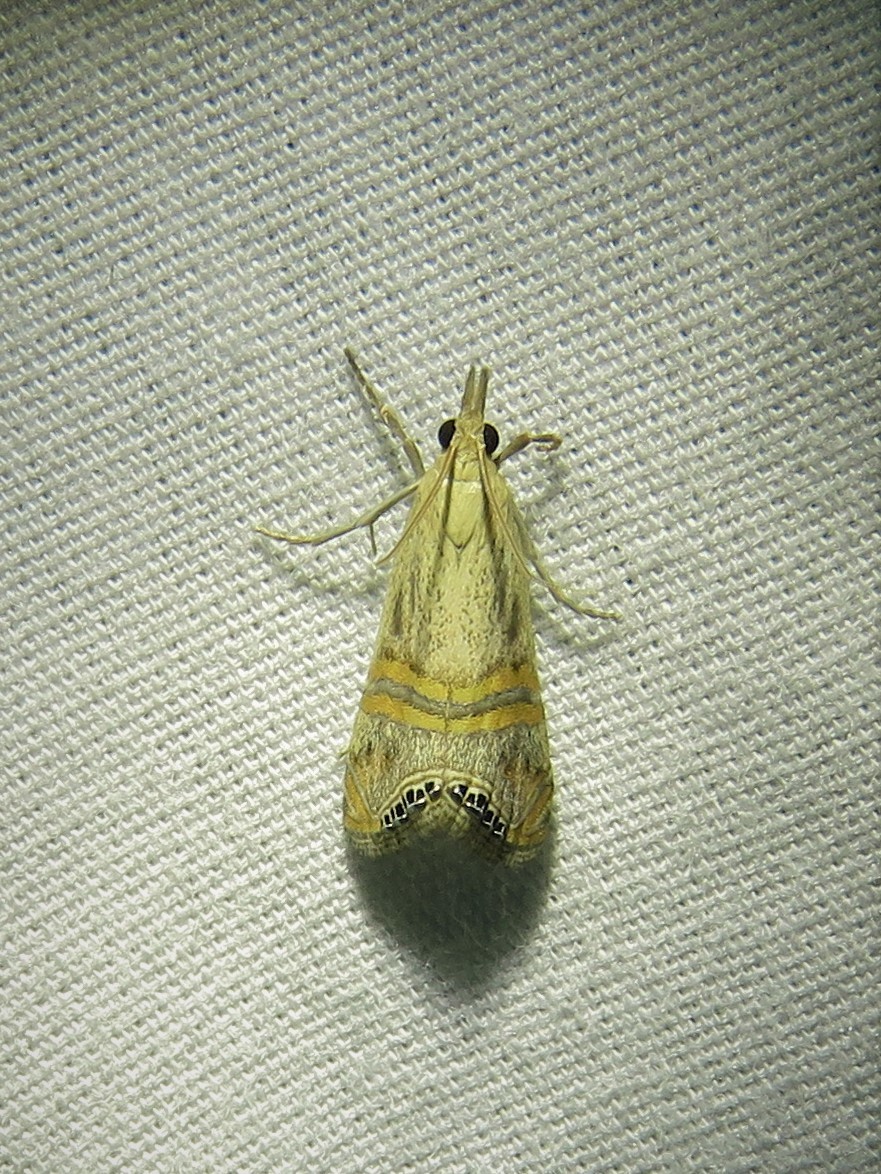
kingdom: Animalia
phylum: Arthropoda
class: Insecta
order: Lepidoptera
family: Crambidae
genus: Euchromius
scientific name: Euchromius ocellea
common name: Necklace veneer moth
